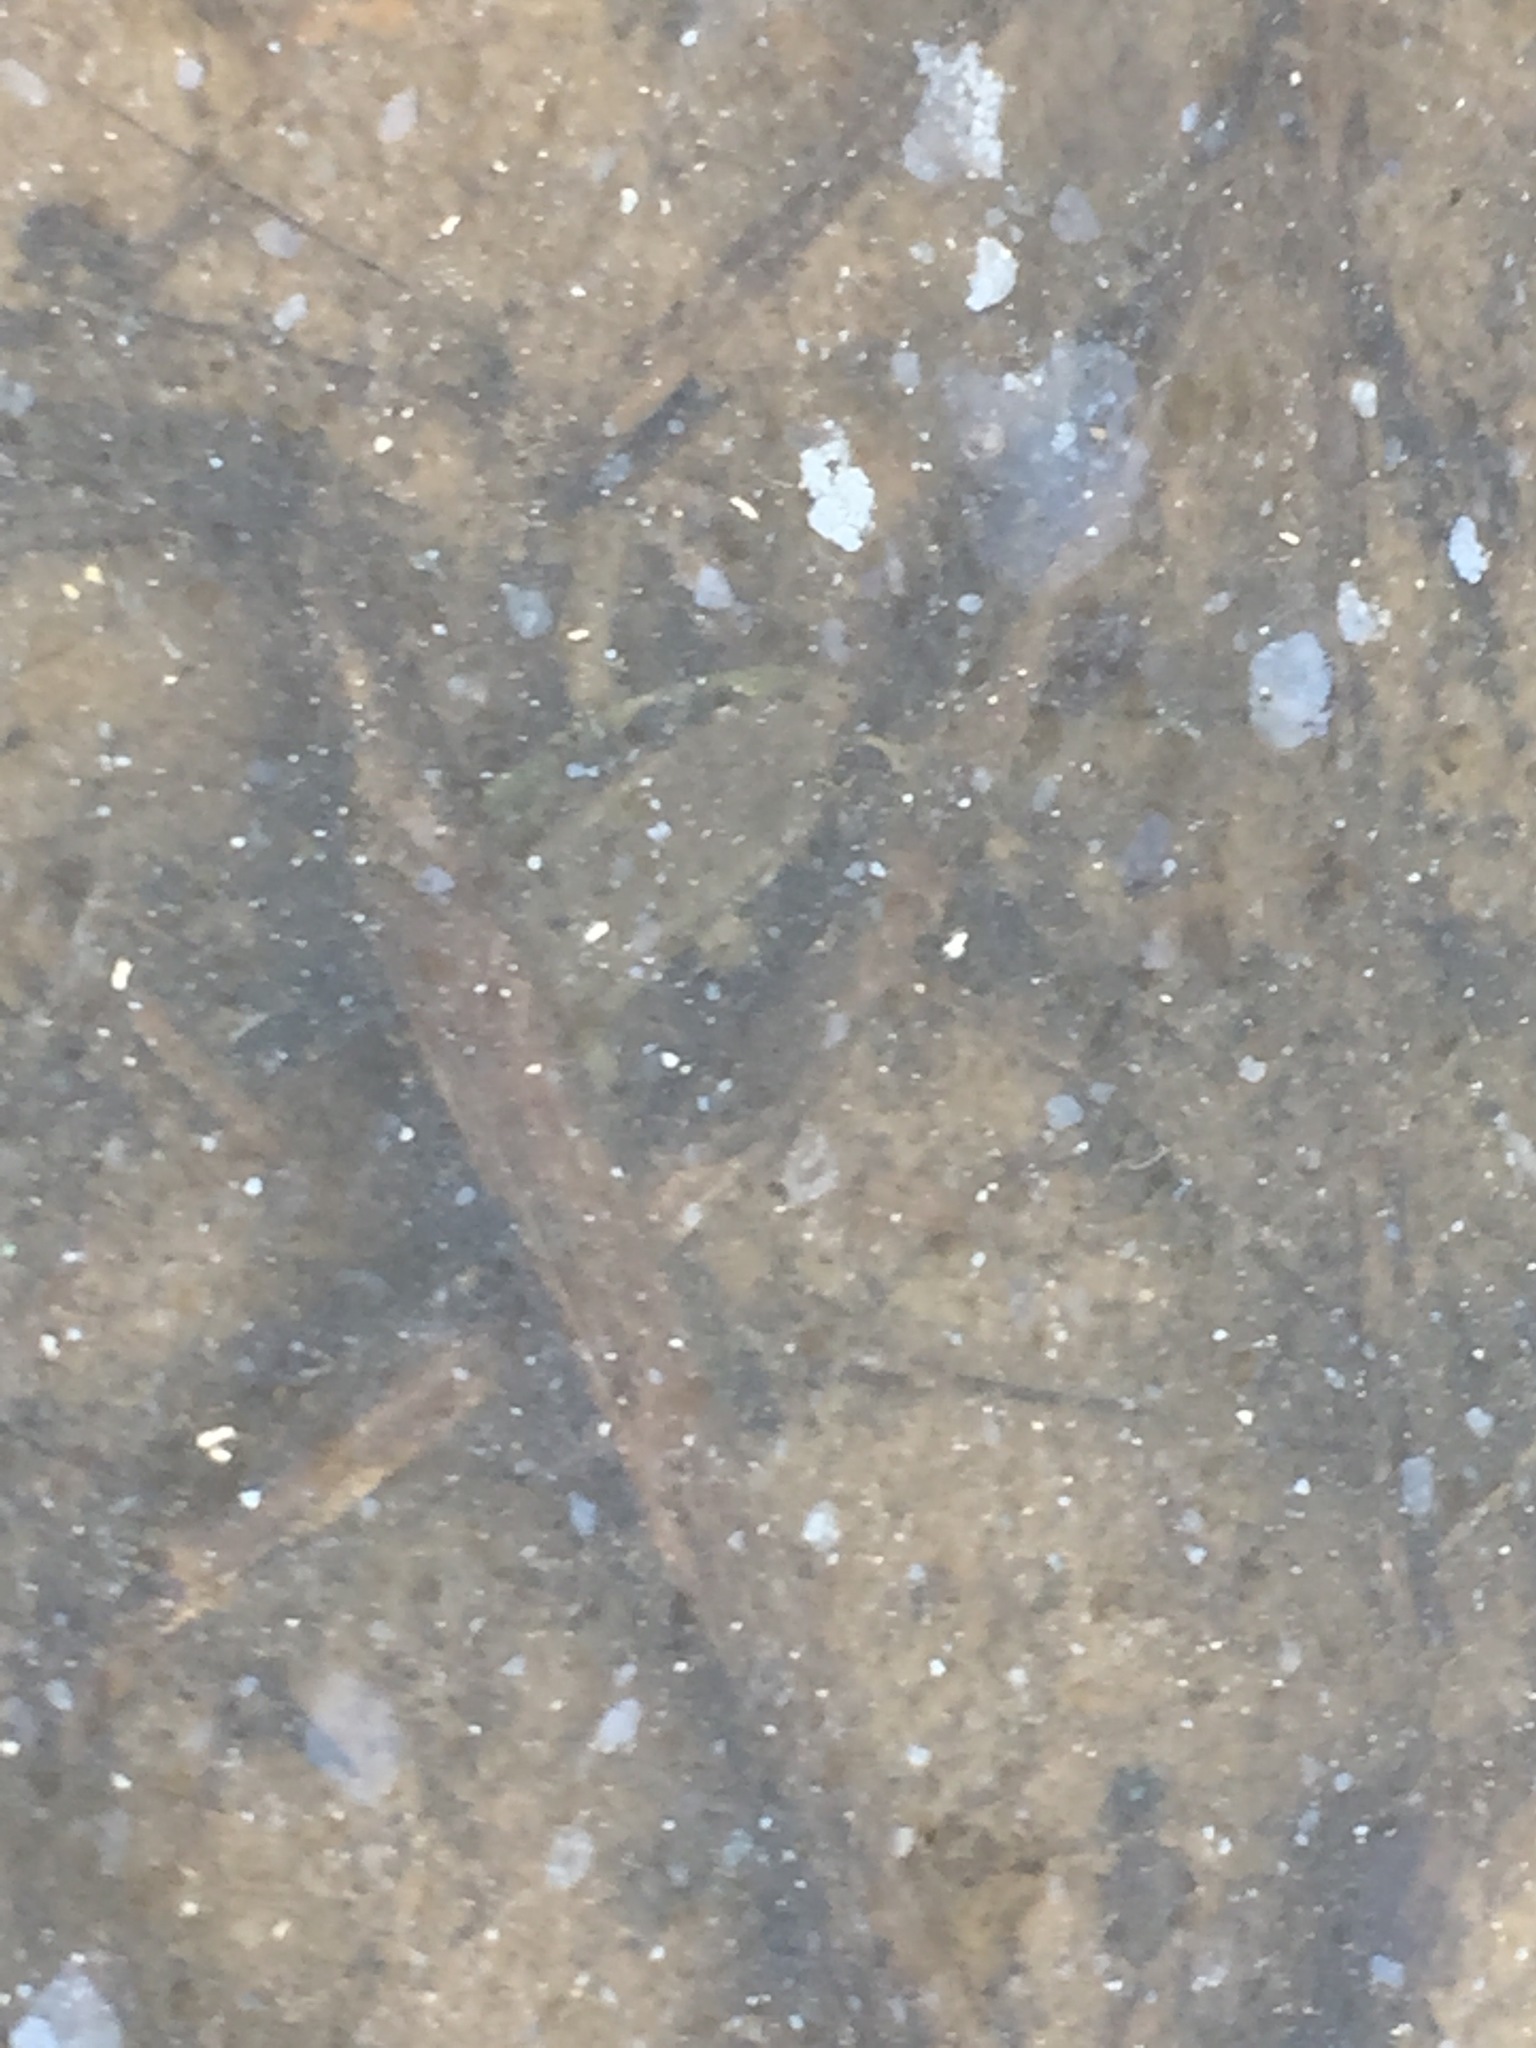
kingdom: Animalia
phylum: Chordata
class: Amphibia
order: Anura
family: Ranidae
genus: Pelophylax
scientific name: Pelophylax chosenicus
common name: Gold-spotted pond frog
